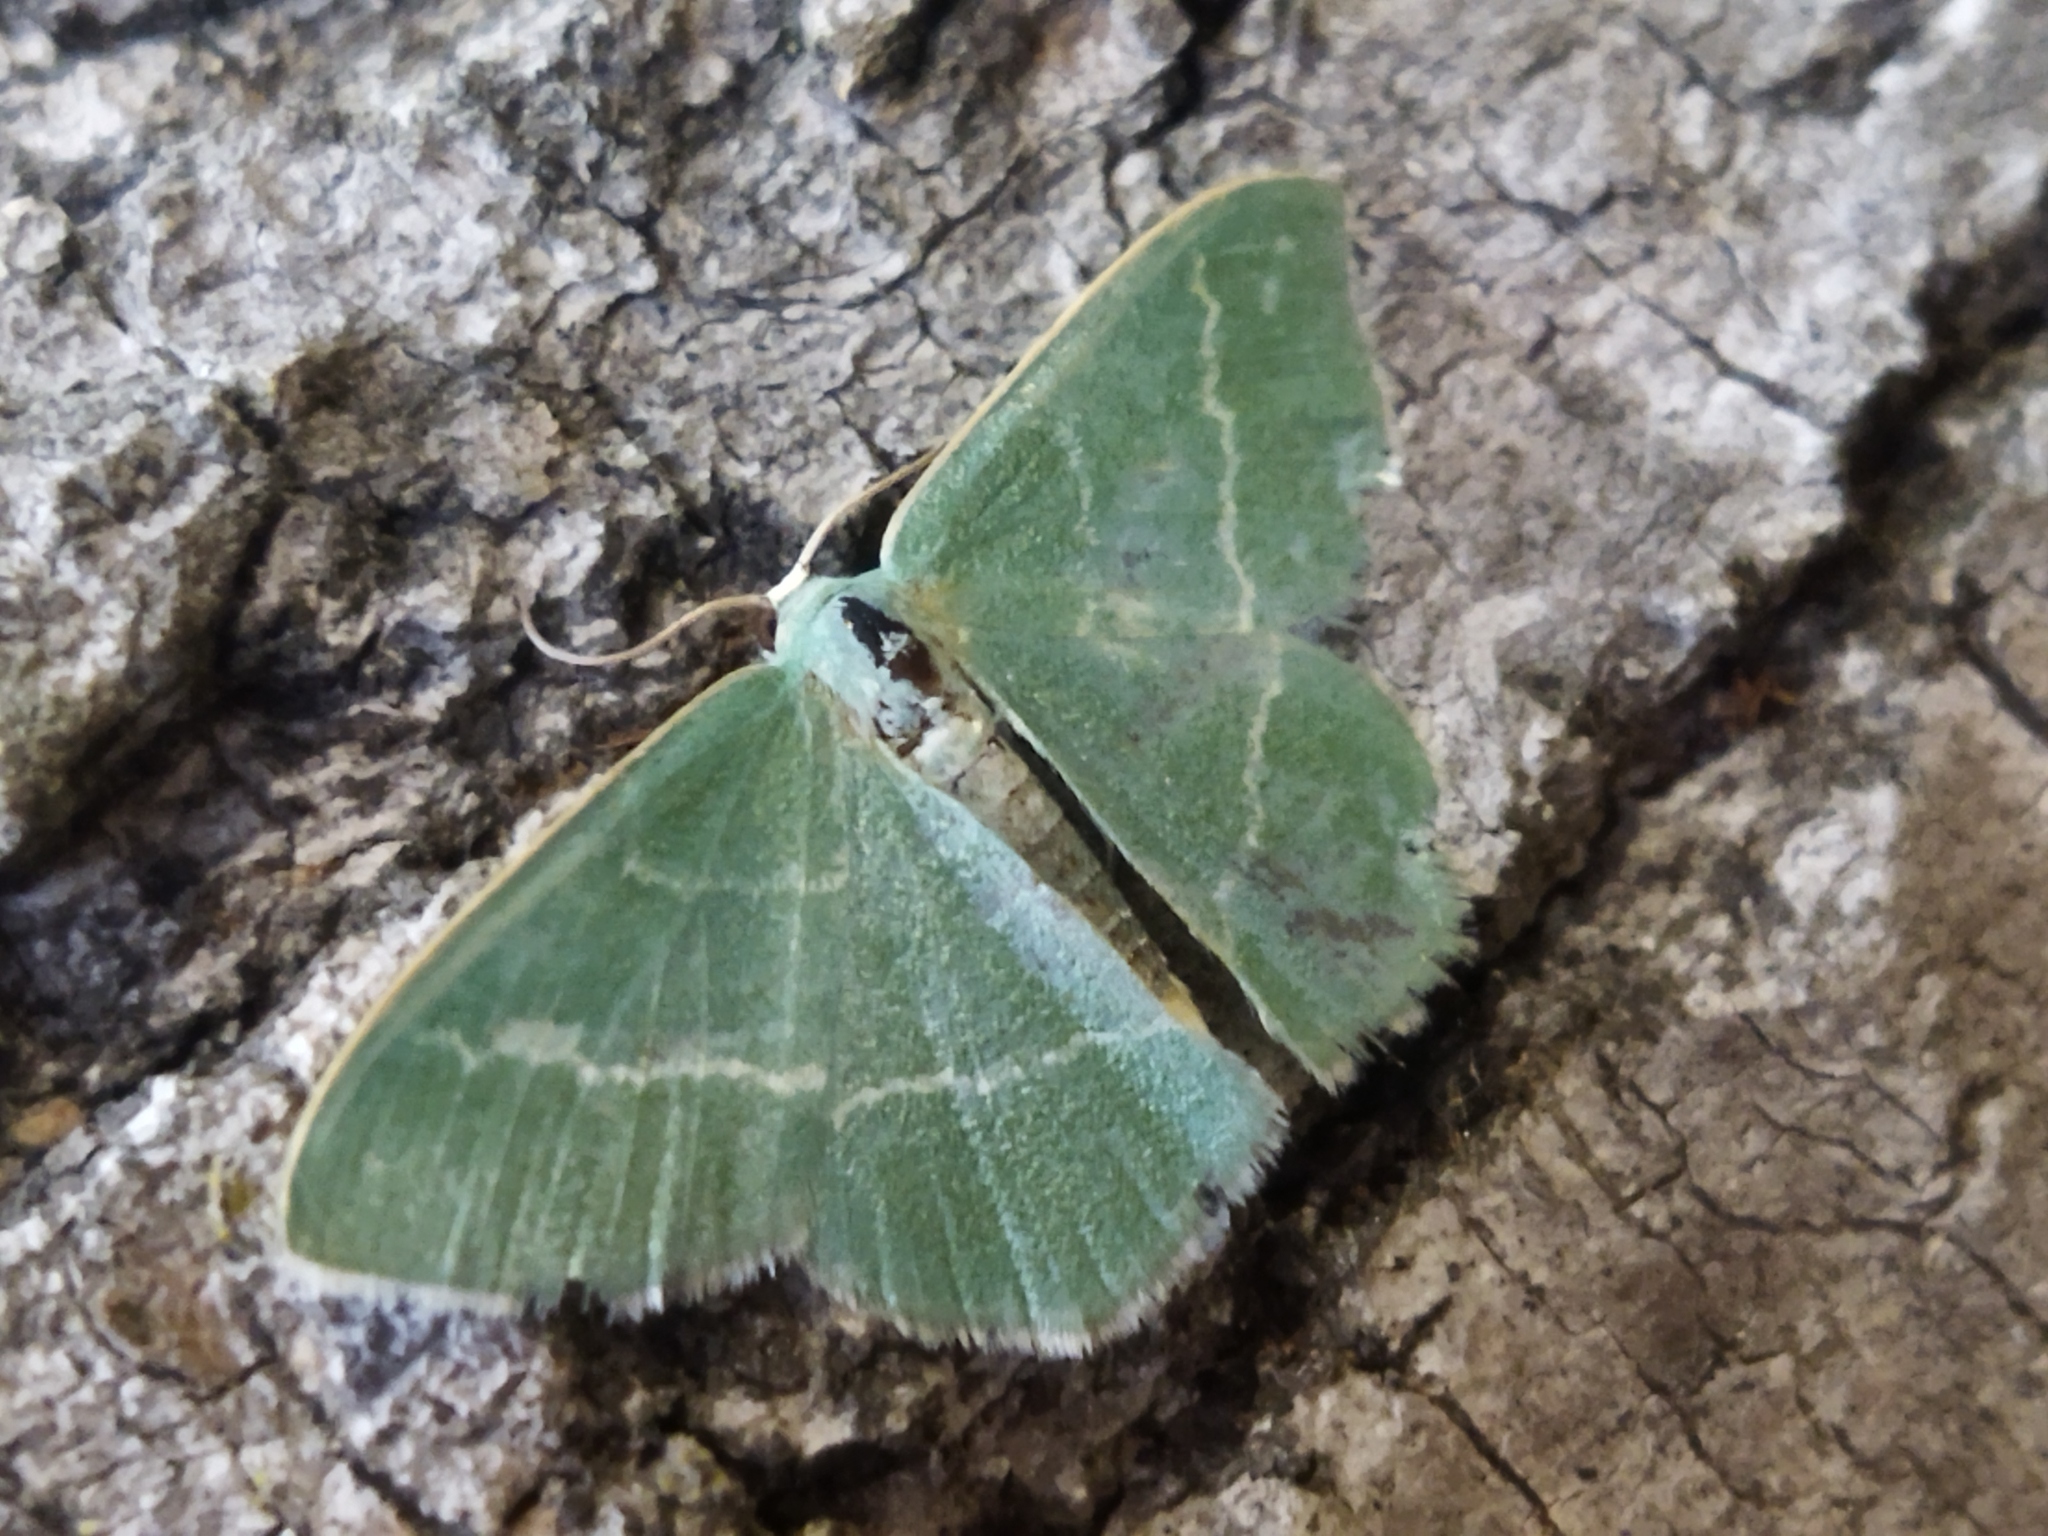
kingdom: Animalia
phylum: Arthropoda
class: Insecta
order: Lepidoptera
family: Geometridae
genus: Chlorissa
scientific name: Chlorissa
